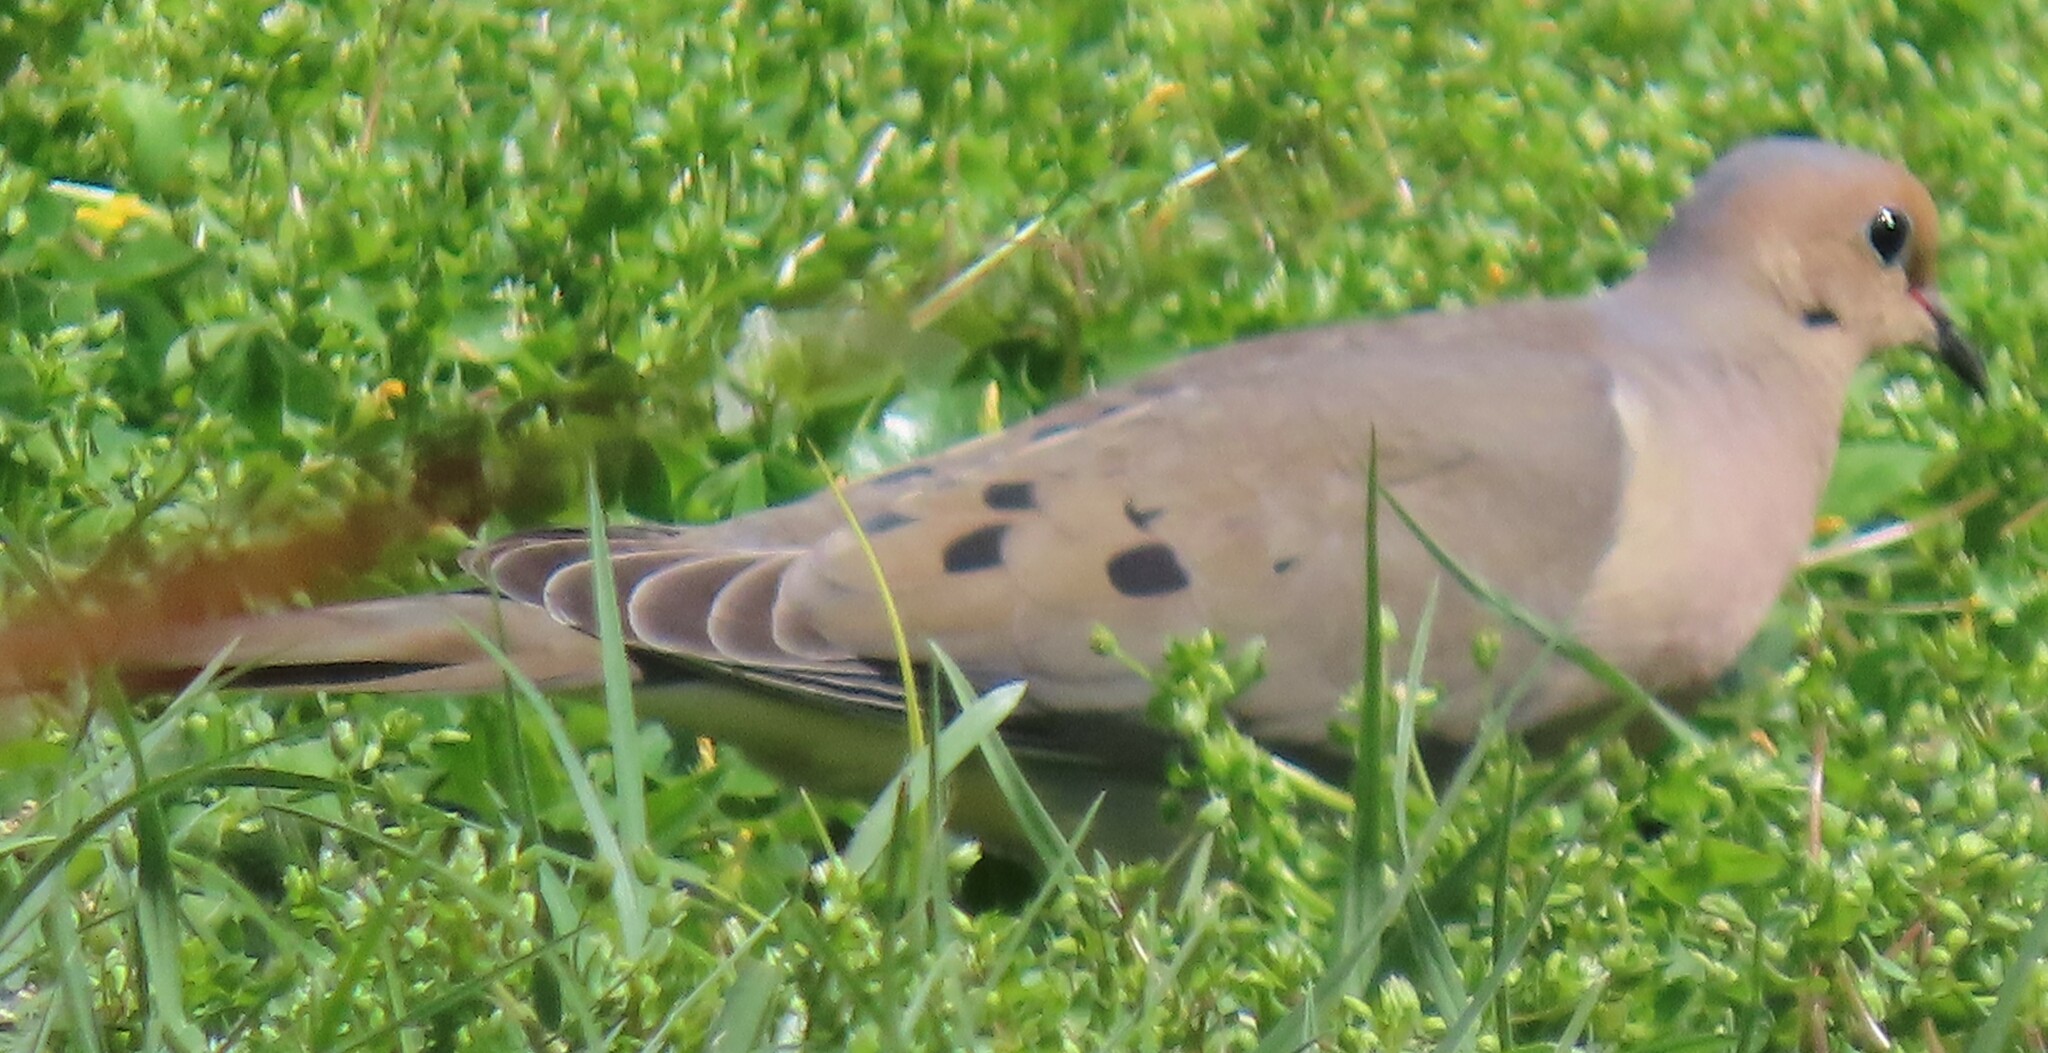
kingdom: Animalia
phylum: Chordata
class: Aves
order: Columbiformes
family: Columbidae
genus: Zenaida
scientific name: Zenaida macroura
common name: Mourning dove
